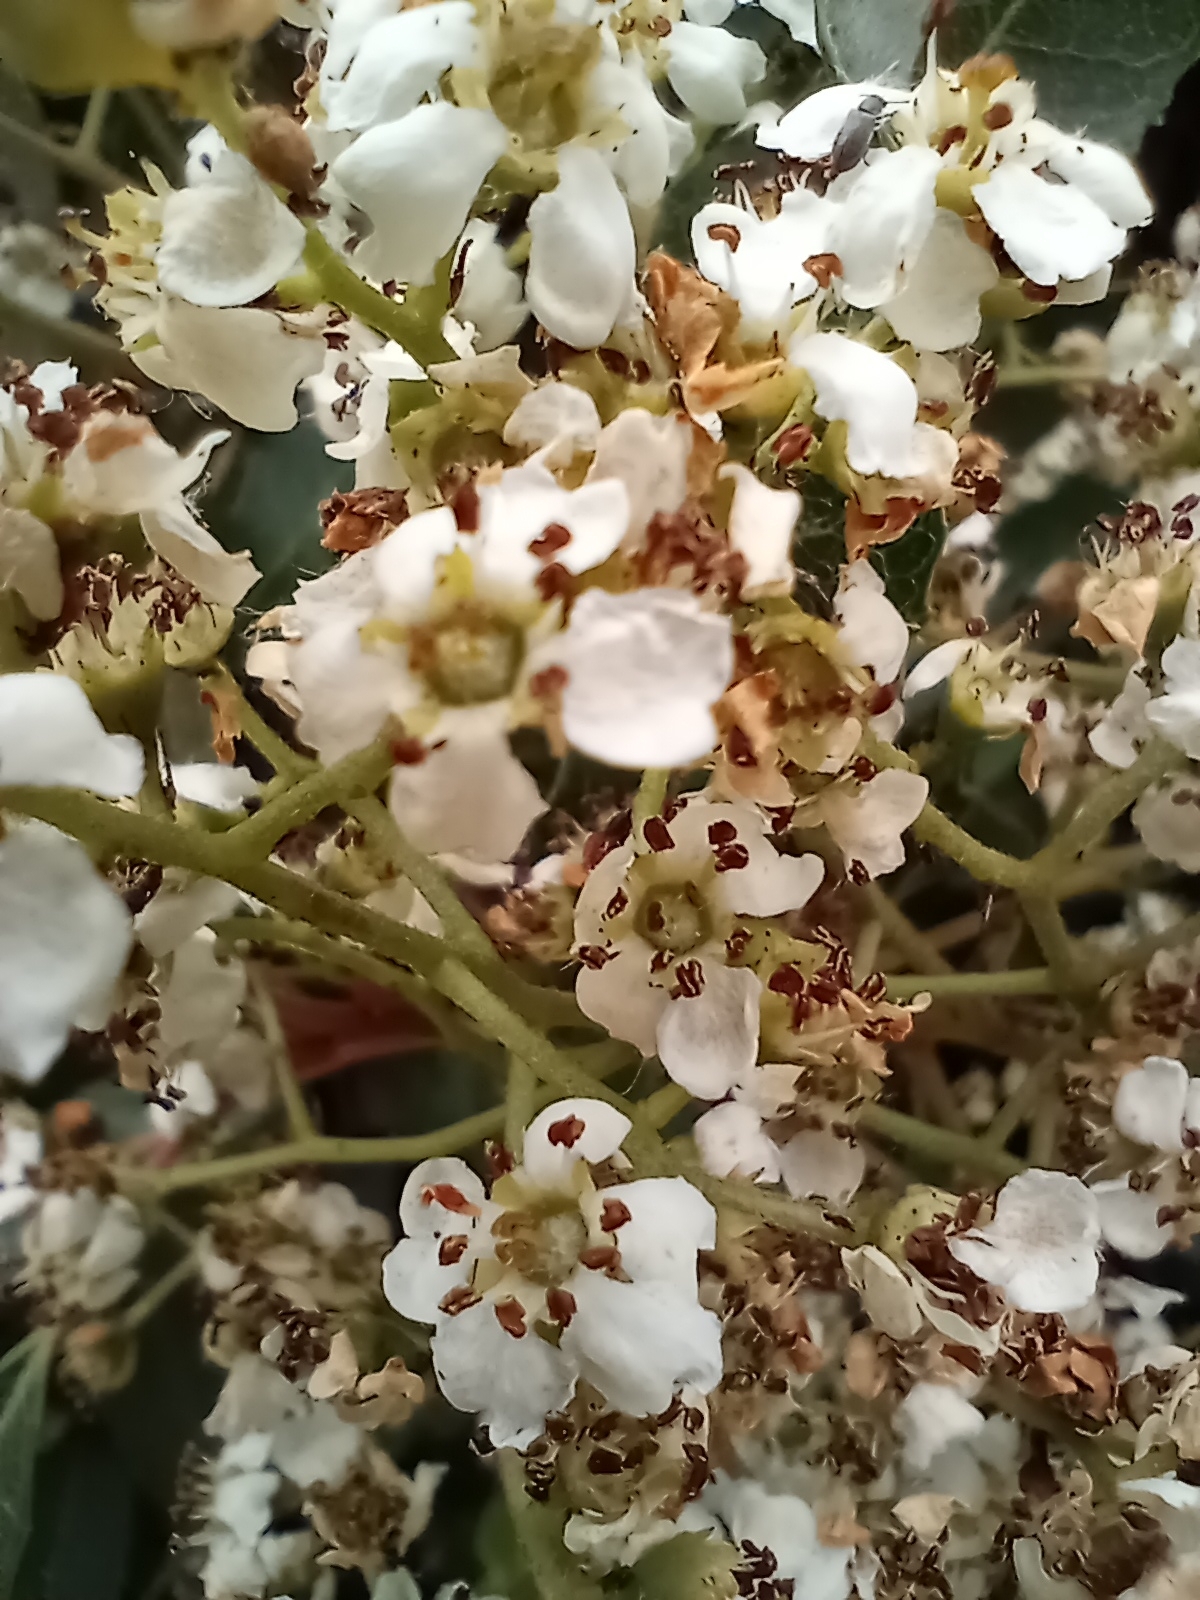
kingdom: Plantae
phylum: Tracheophyta
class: Magnoliopsida
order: Rosales
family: Rosaceae
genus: Heteromeles
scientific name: Heteromeles arbutifolia
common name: California-holly
